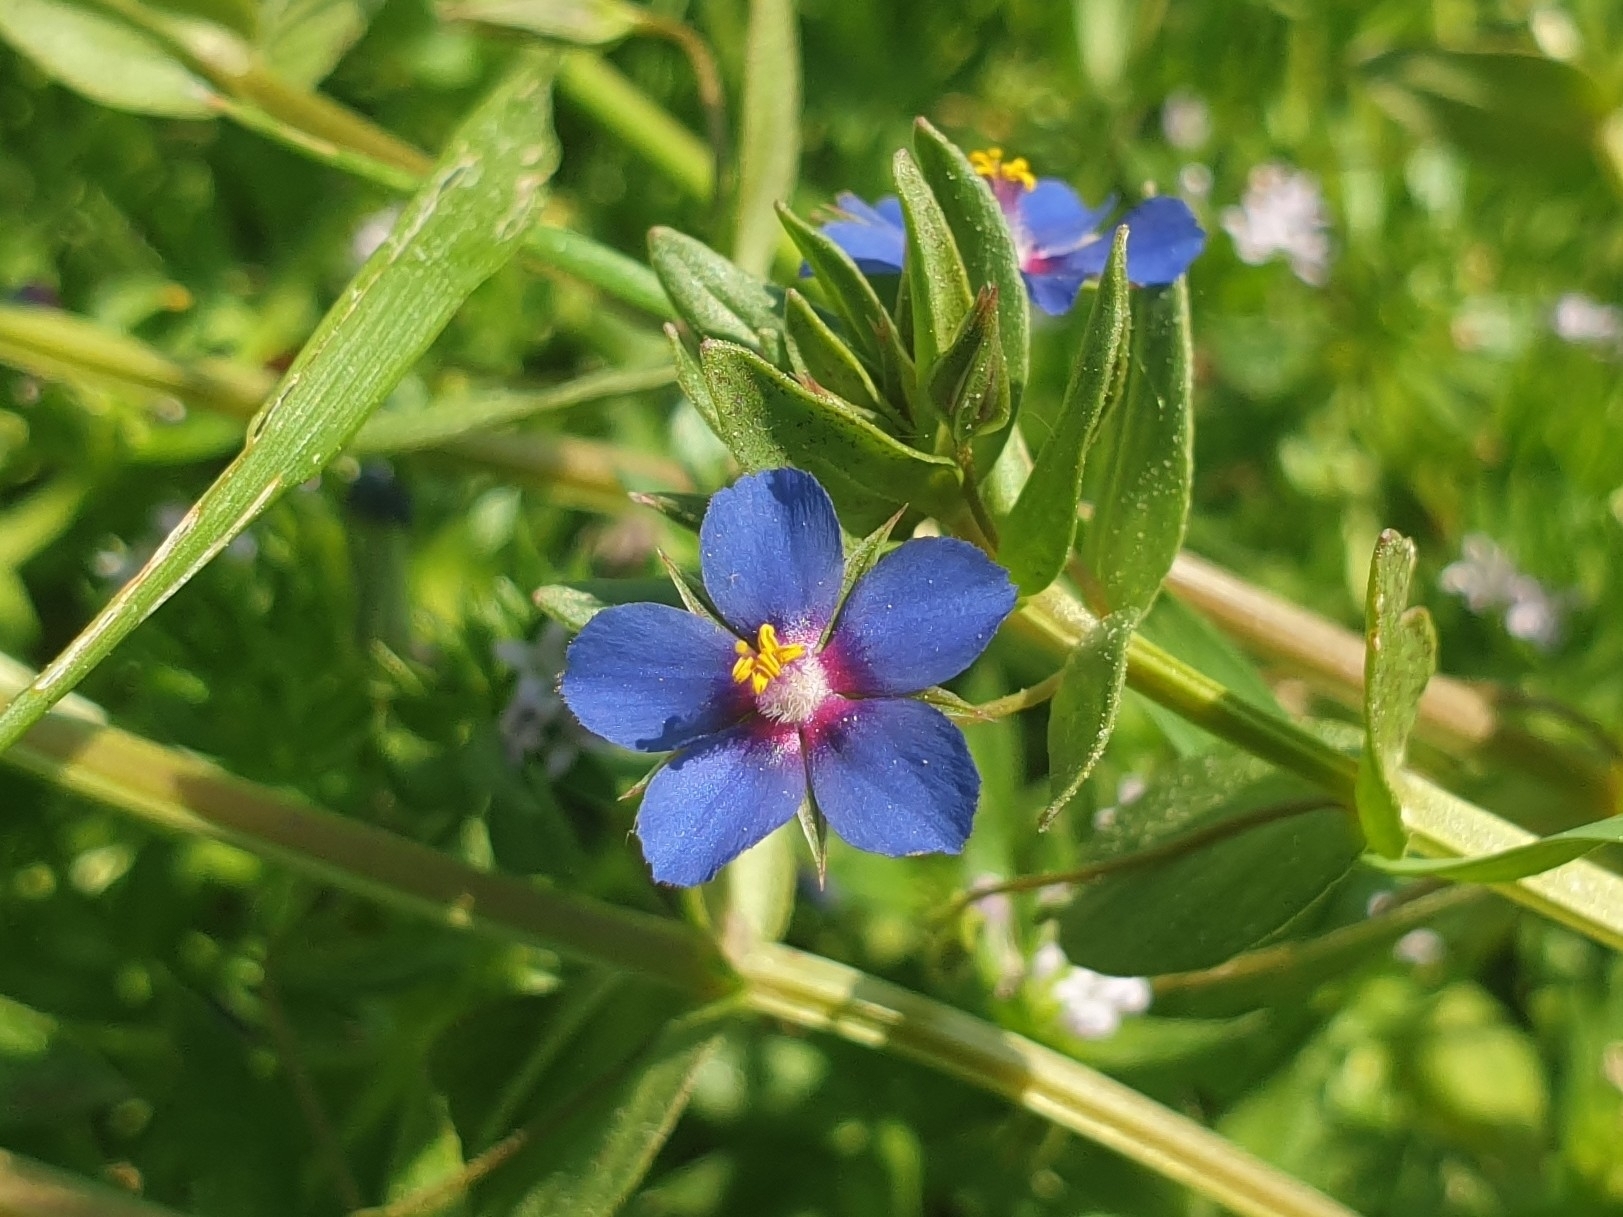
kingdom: Plantae
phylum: Tracheophyta
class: Magnoliopsida
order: Ericales
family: Primulaceae
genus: Lysimachia
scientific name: Lysimachia foemina
